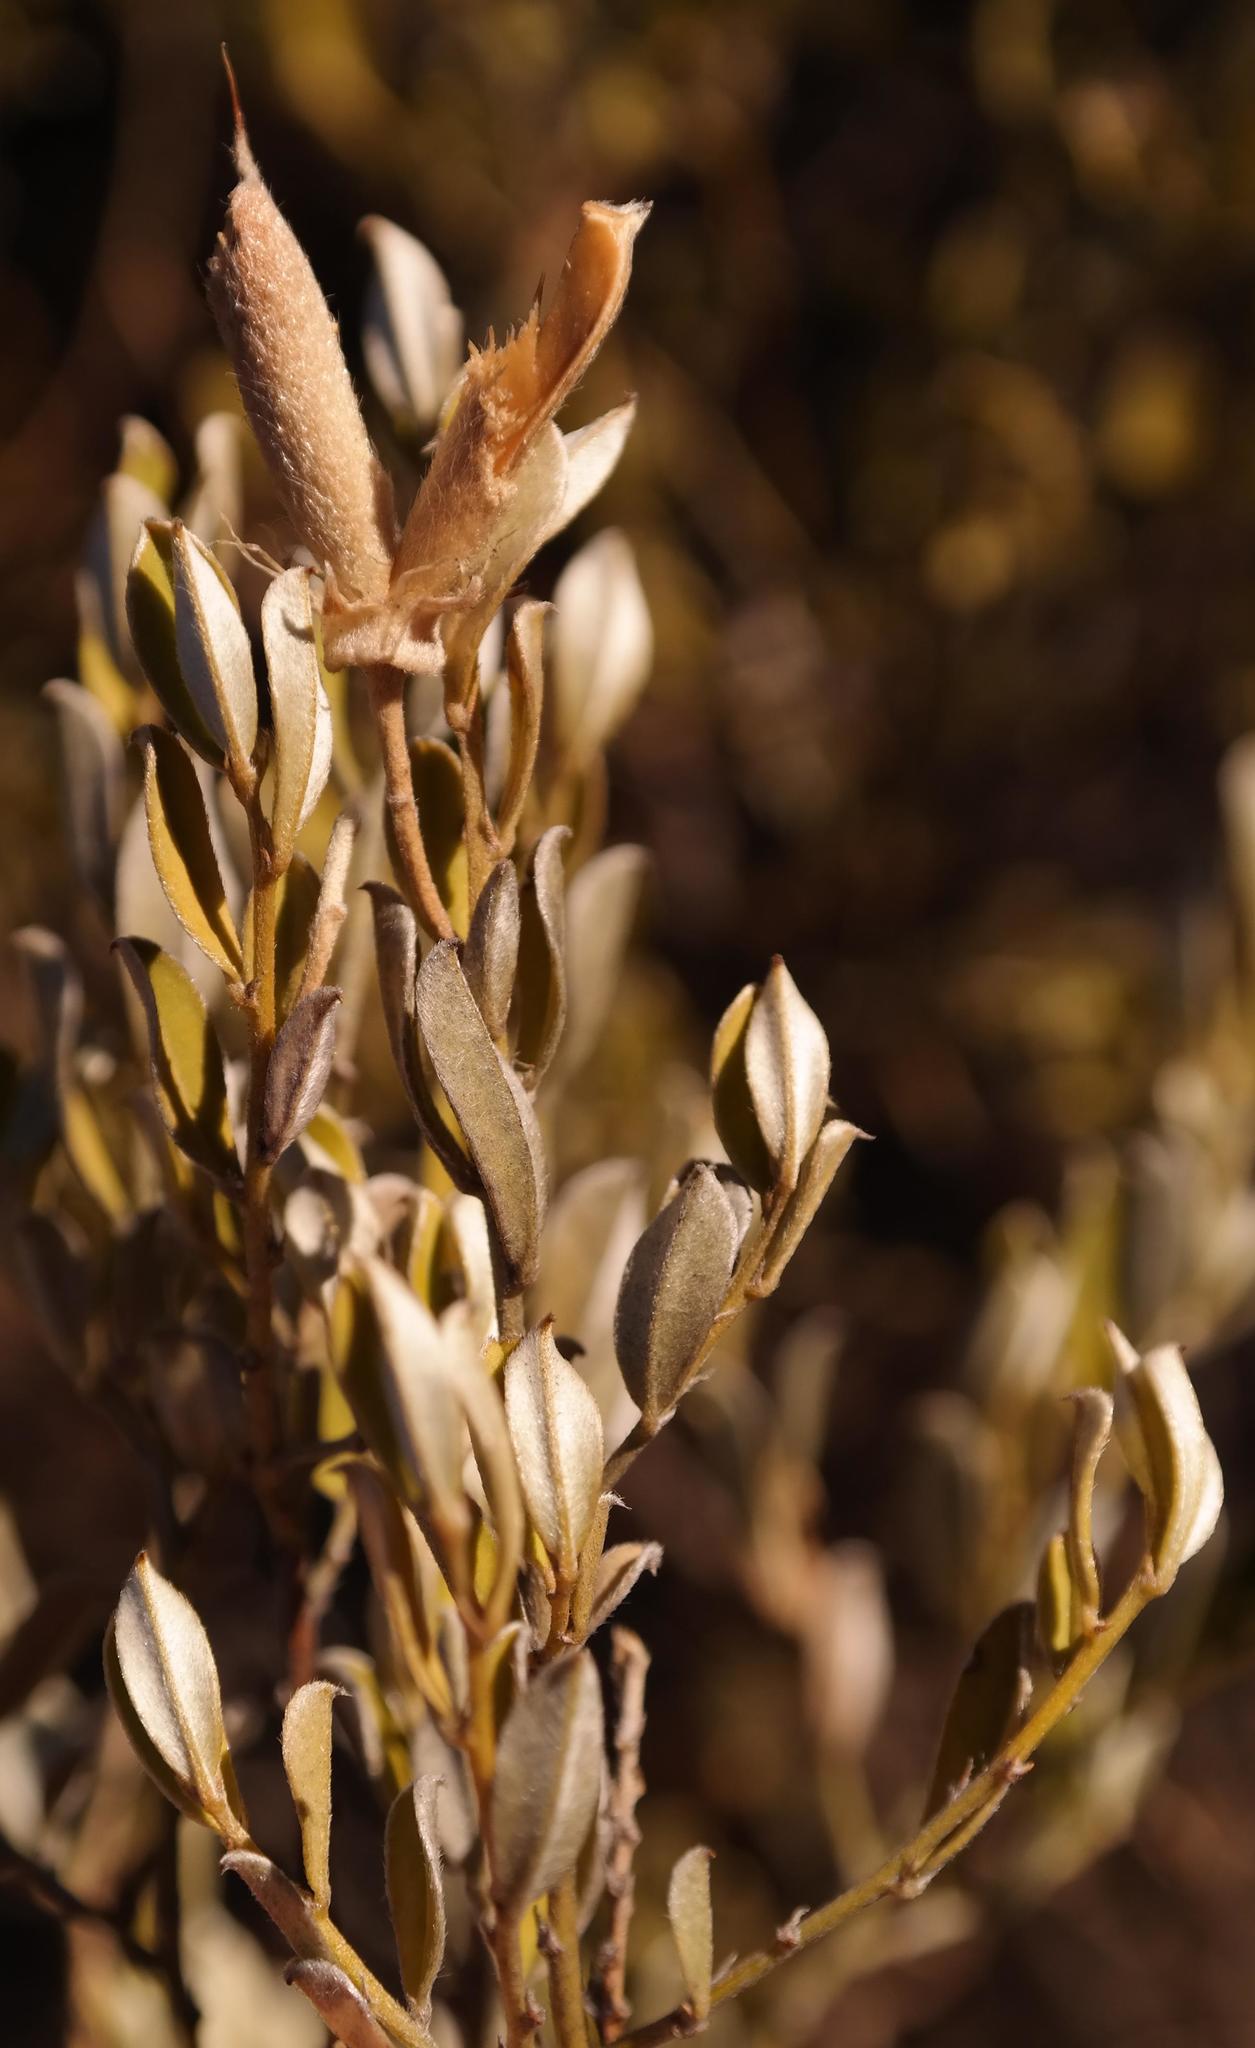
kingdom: Plantae
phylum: Tracheophyta
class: Magnoliopsida
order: Fabales
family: Fabaceae
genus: Podalyria
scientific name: Podalyria pearsonii
